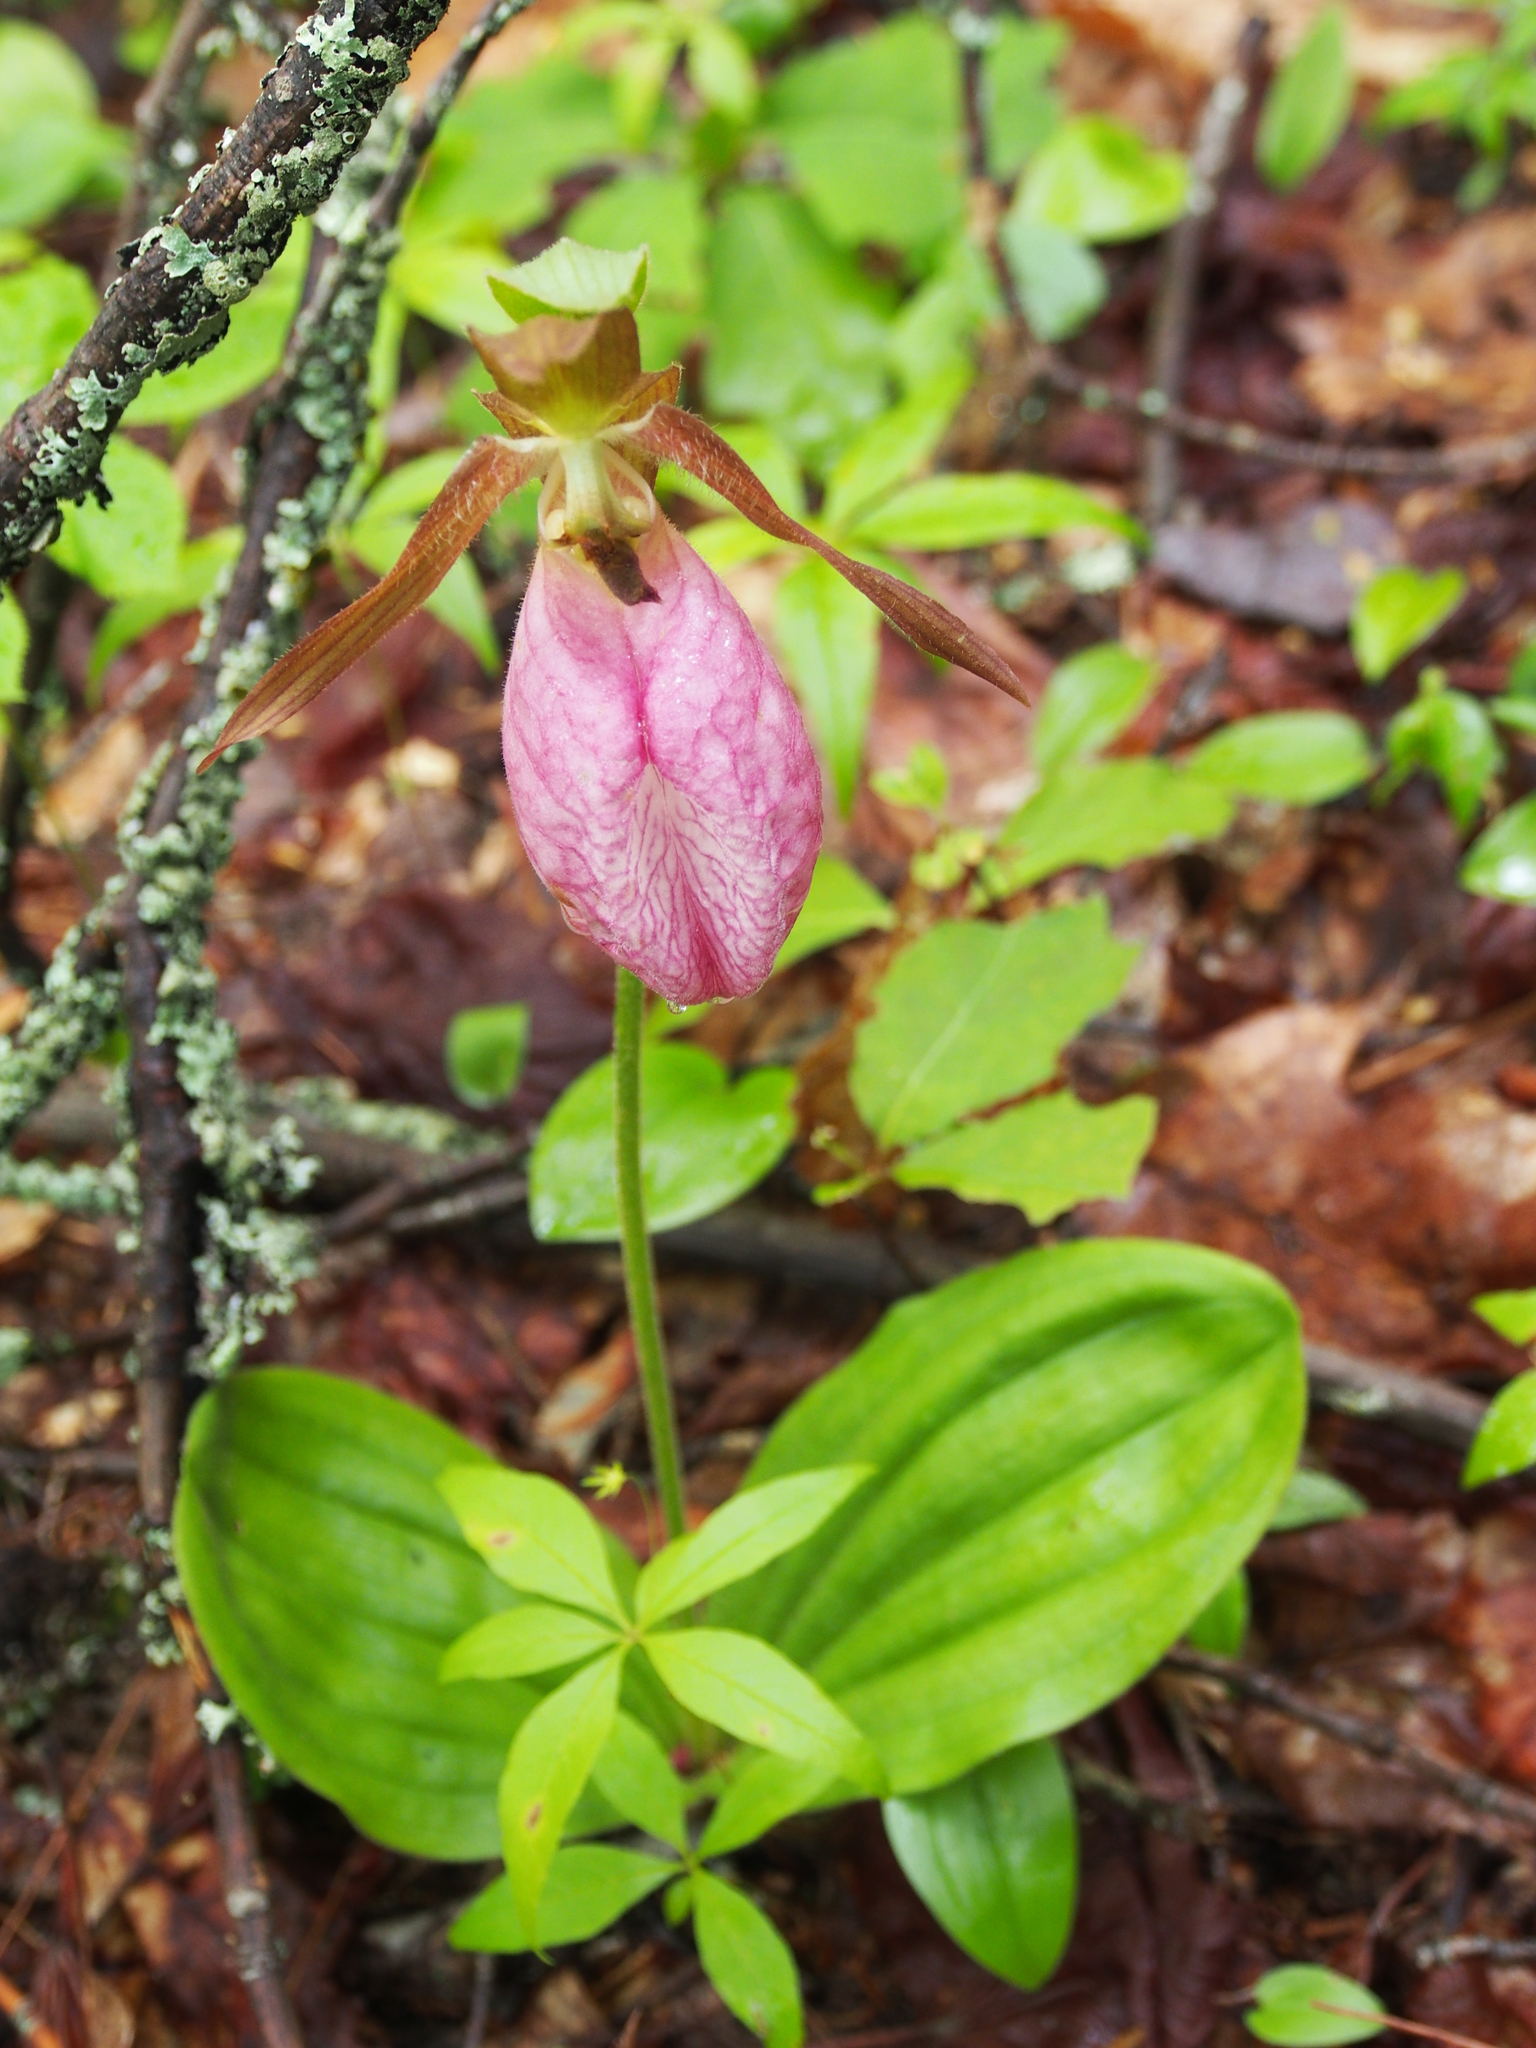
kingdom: Plantae
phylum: Tracheophyta
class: Liliopsida
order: Asparagales
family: Orchidaceae
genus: Cypripedium
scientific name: Cypripedium acaule
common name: Pink lady's-slipper
